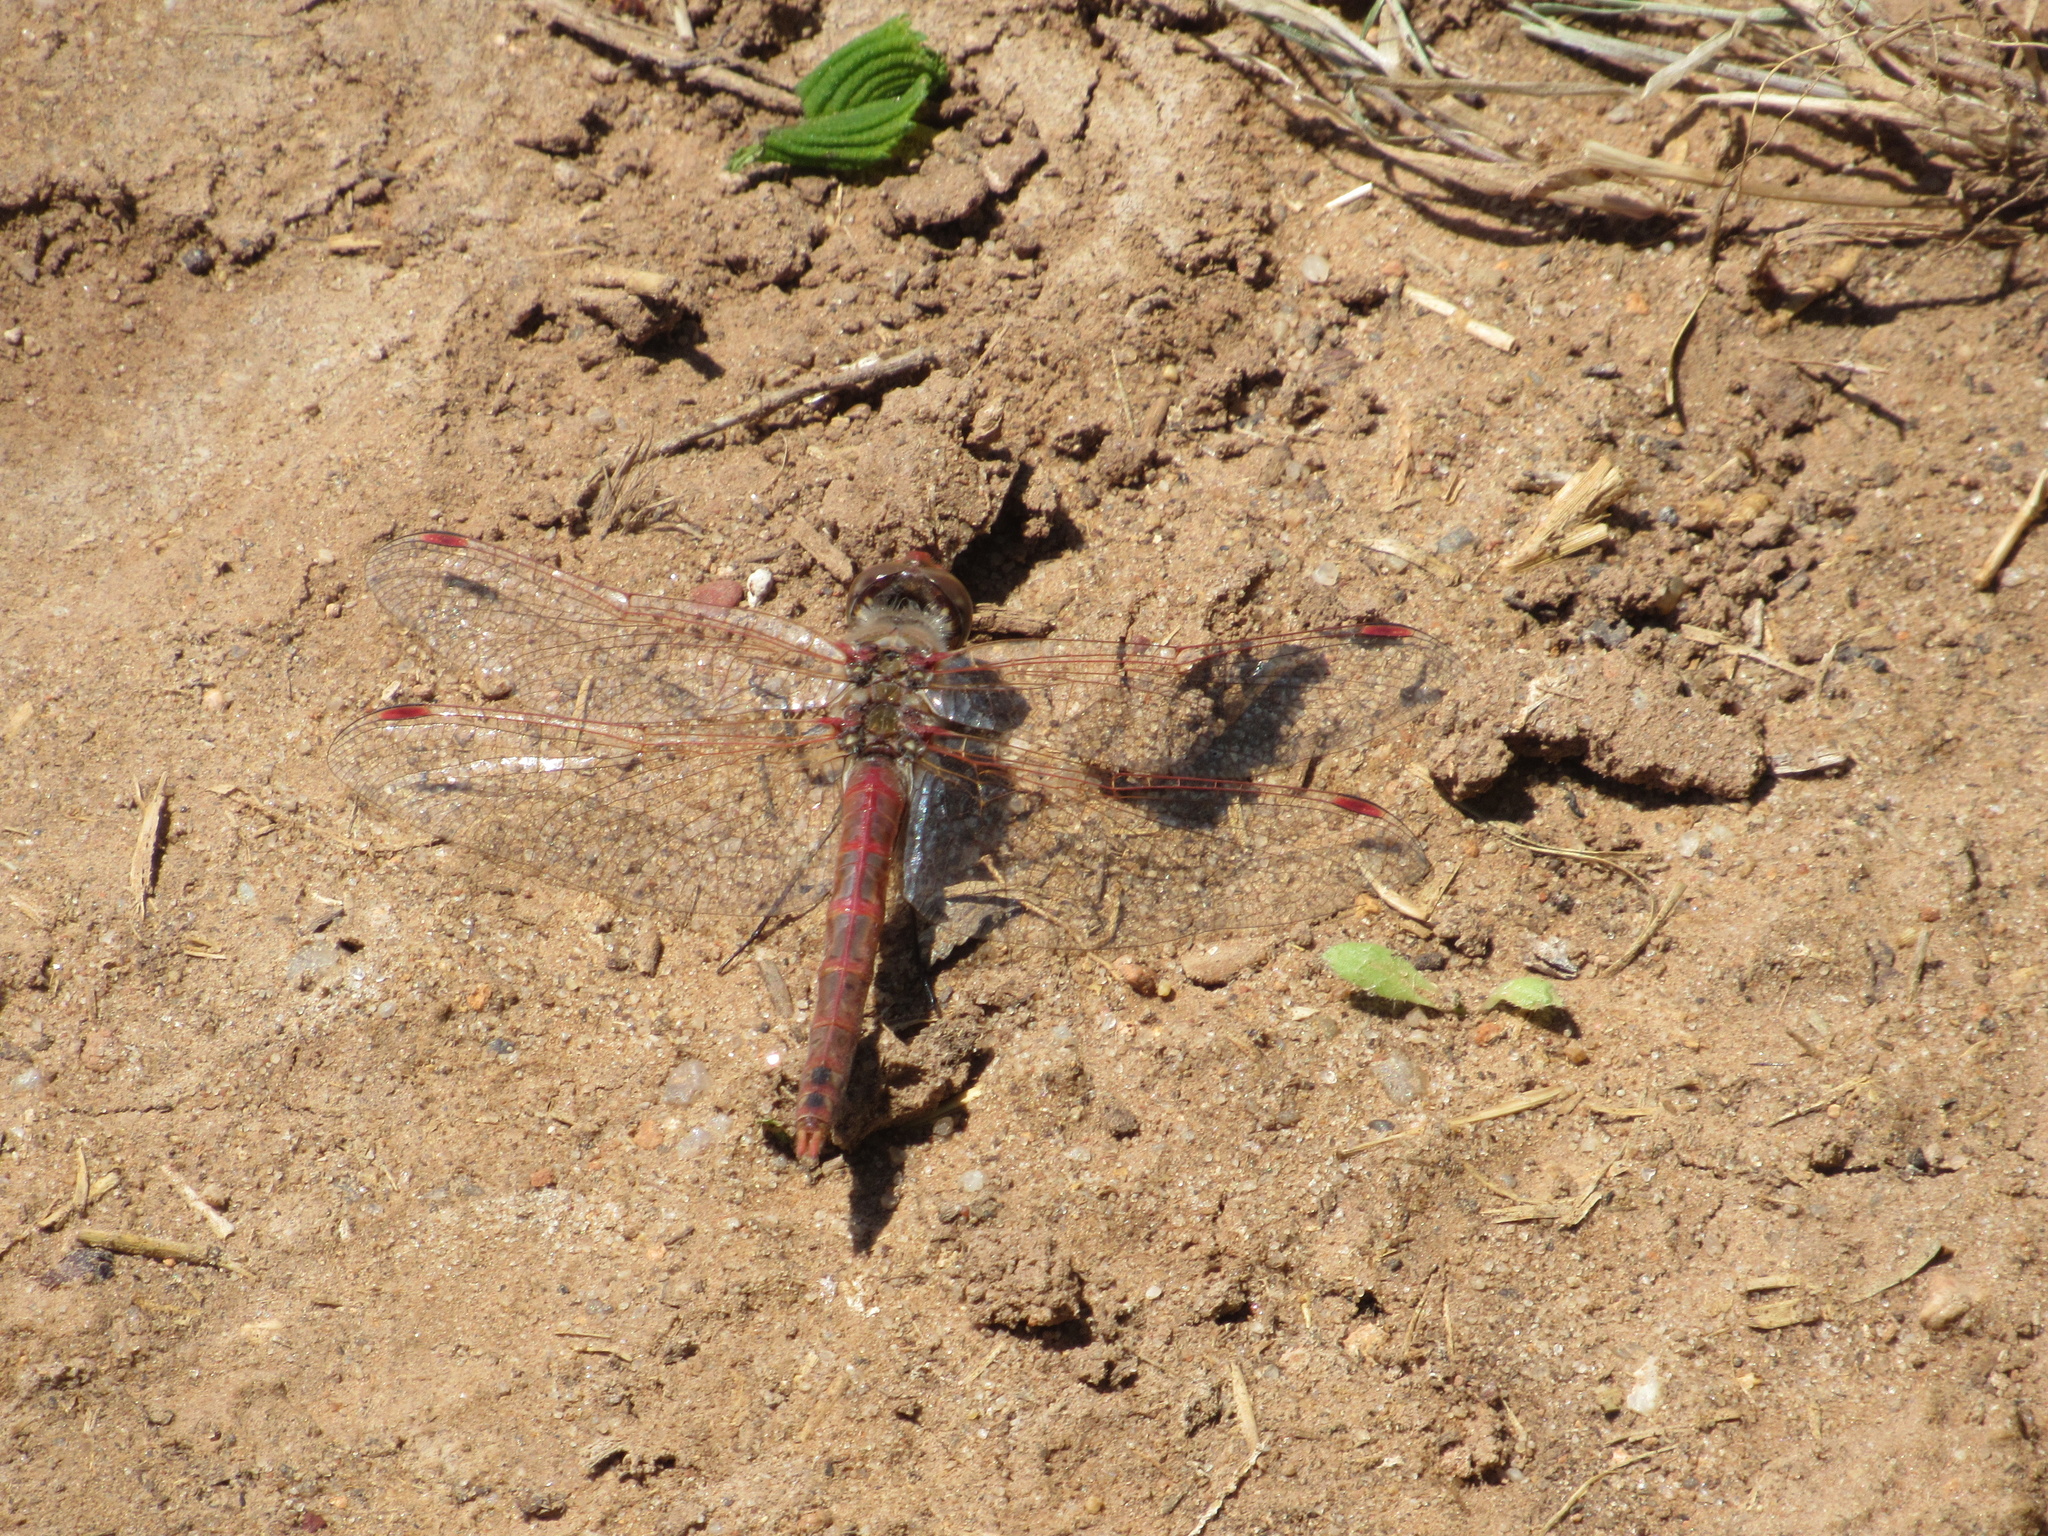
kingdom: Animalia
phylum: Arthropoda
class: Insecta
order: Odonata
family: Libellulidae
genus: Sympetrum
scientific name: Sympetrum corruptum
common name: Variegated meadowhawk
